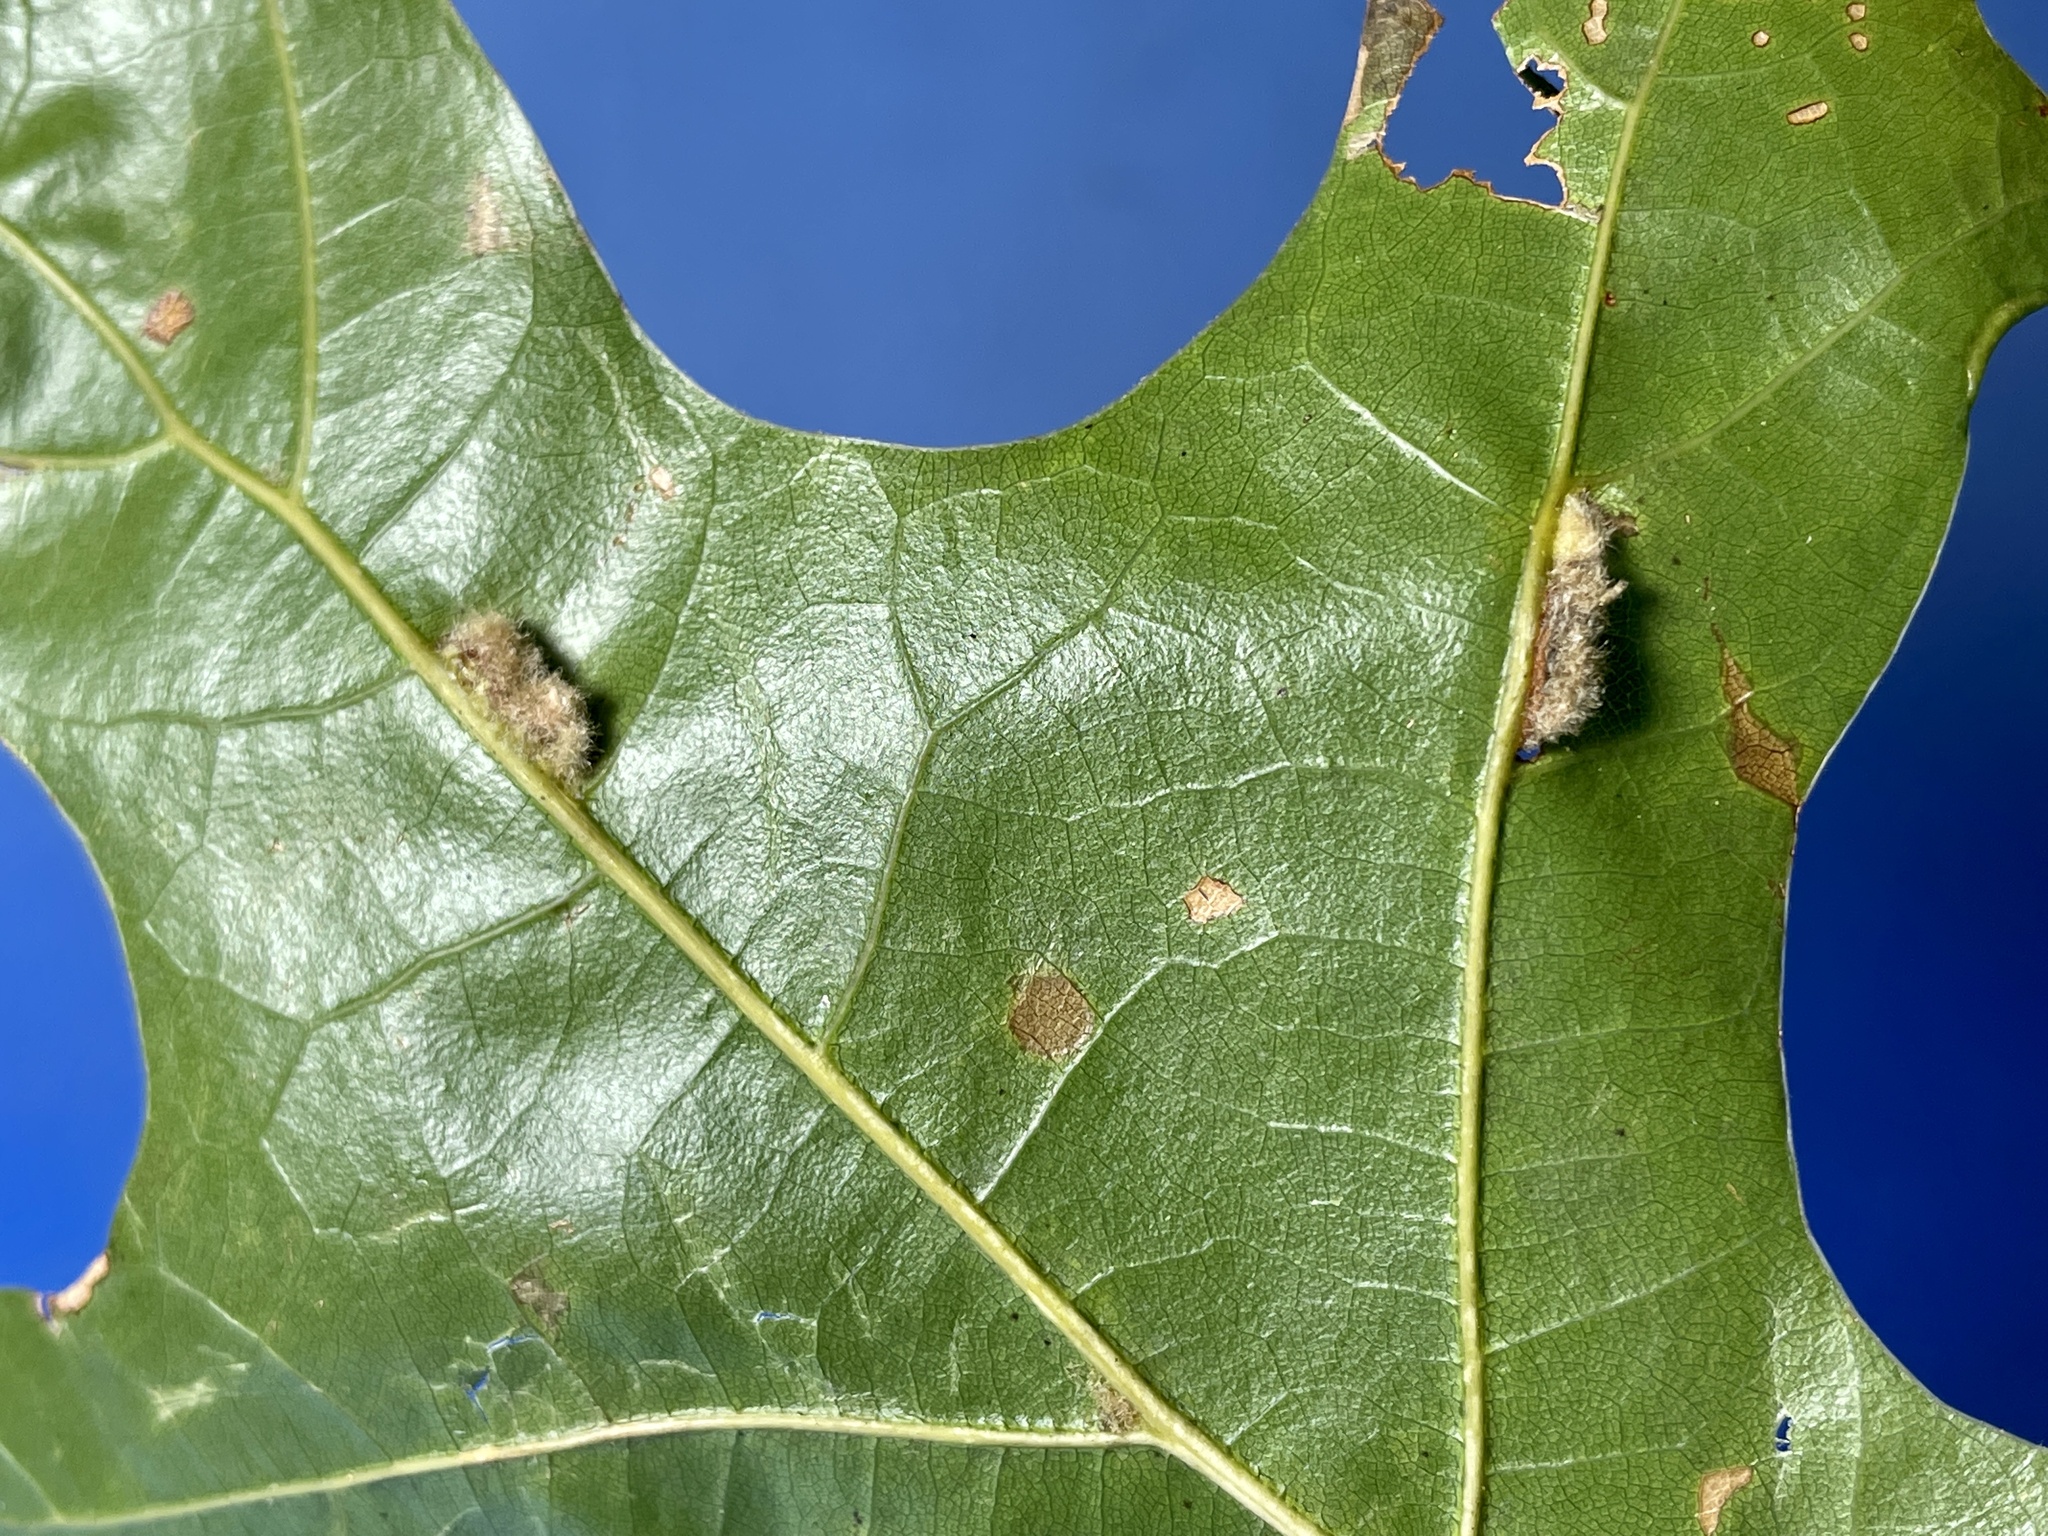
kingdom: Animalia
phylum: Arthropoda
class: Insecta
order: Diptera
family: Cecidomyiidae
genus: Macrodiplosis
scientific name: Macrodiplosis niveipila
